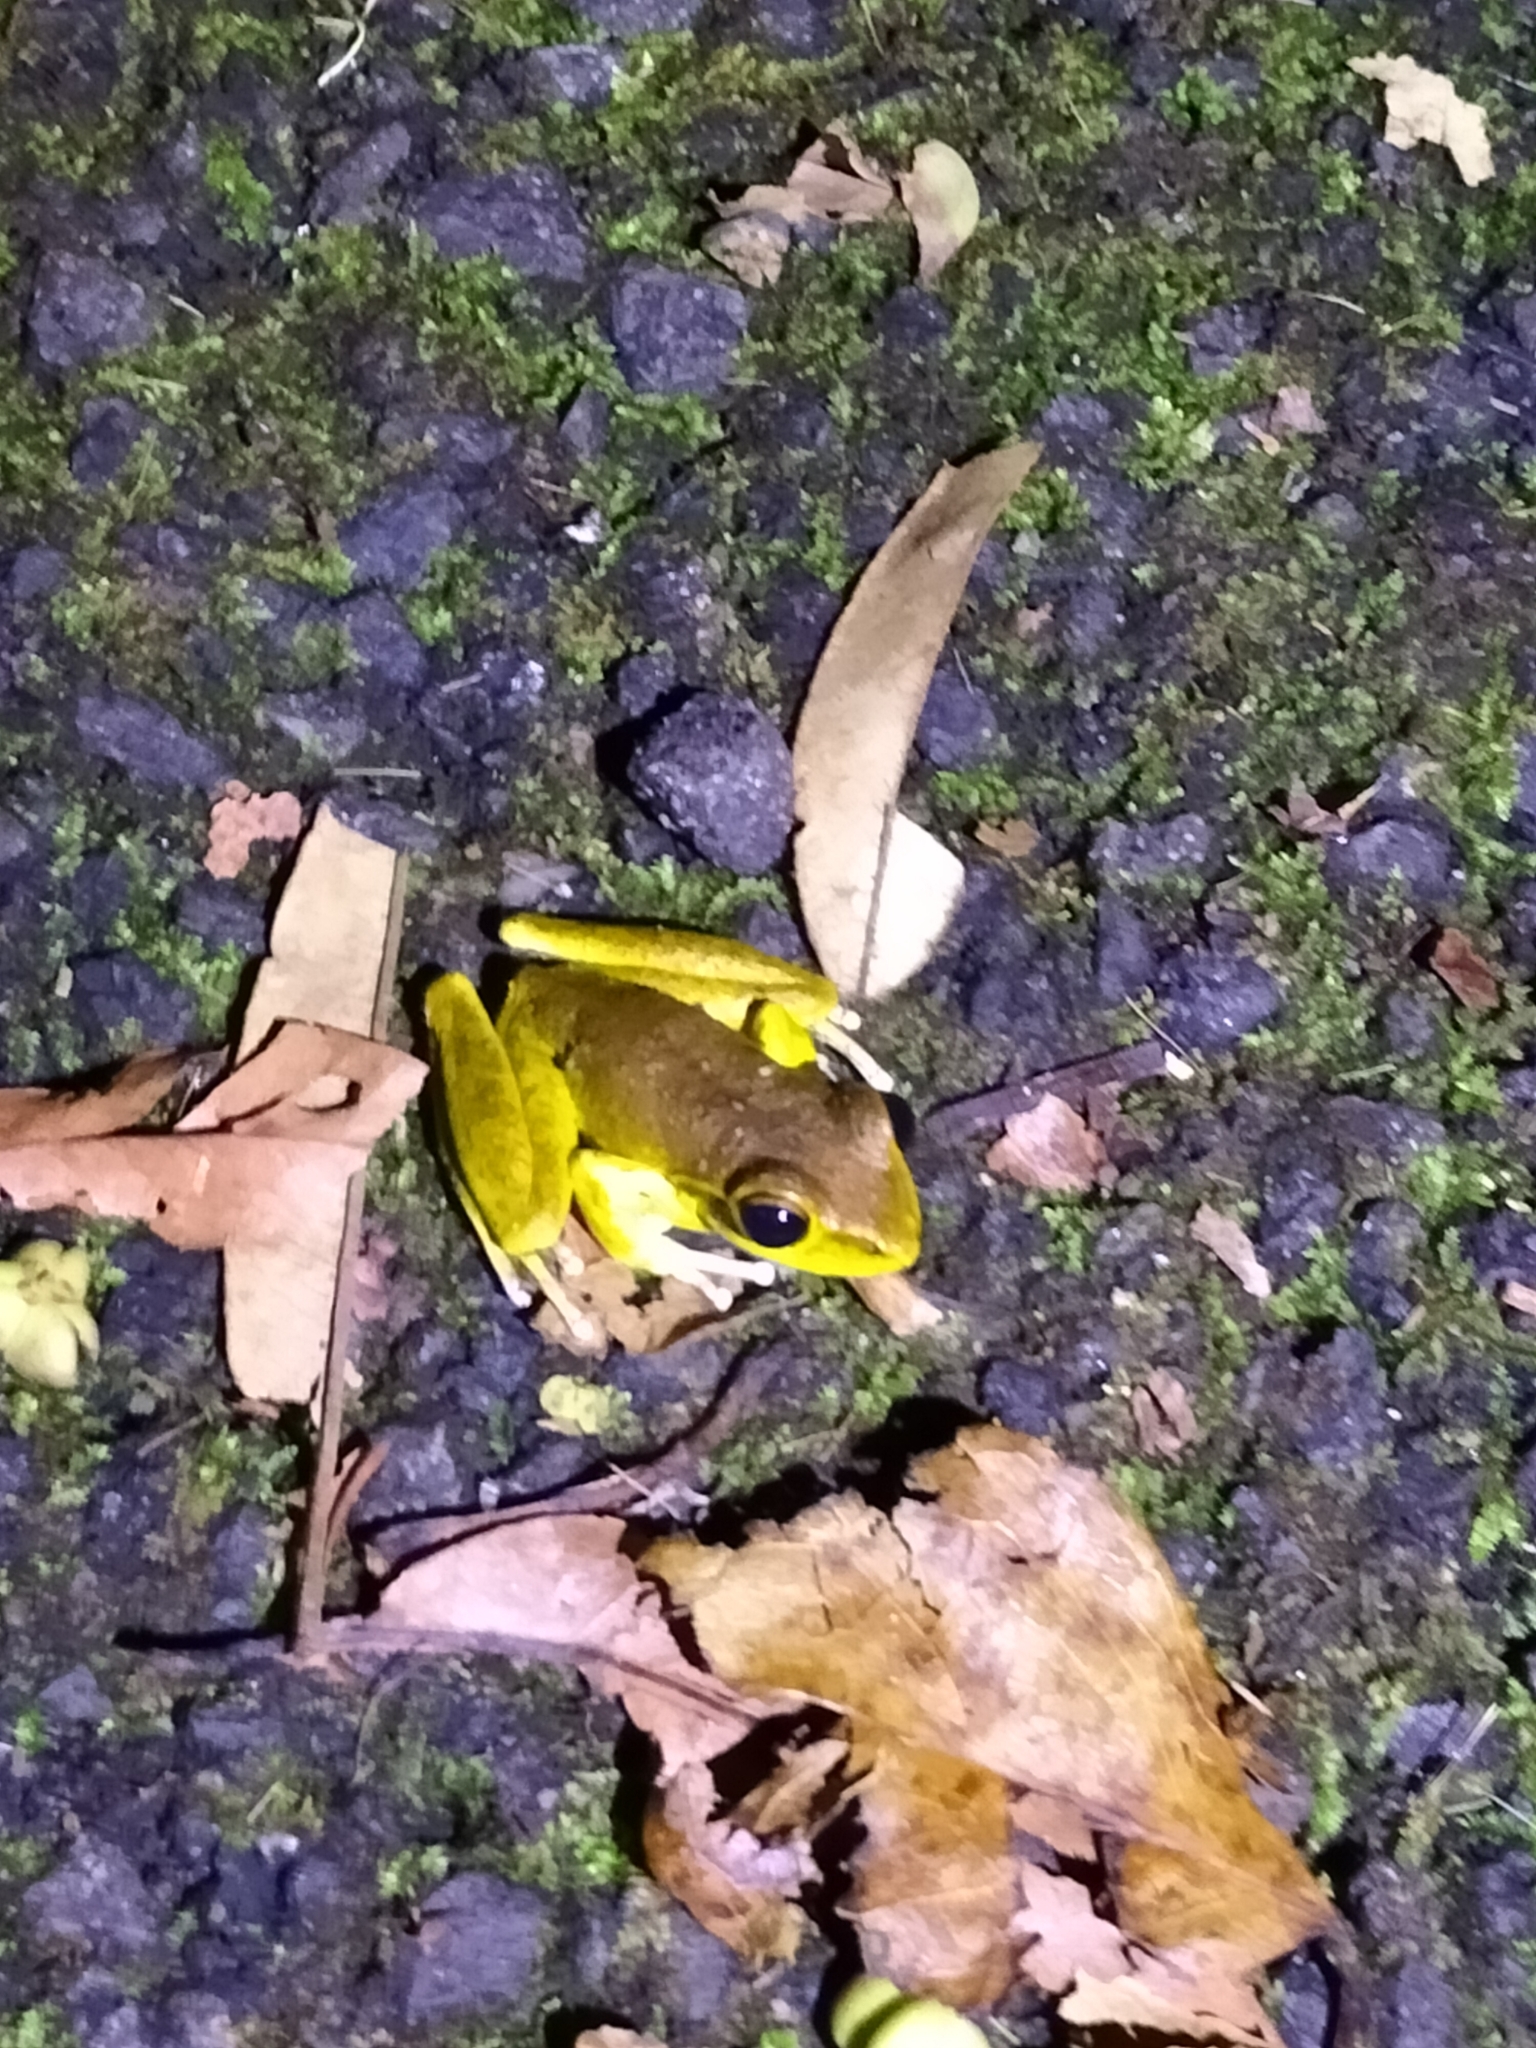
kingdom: Animalia
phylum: Chordata
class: Amphibia
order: Anura
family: Hylidae
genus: Ranoidea
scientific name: Ranoidea
